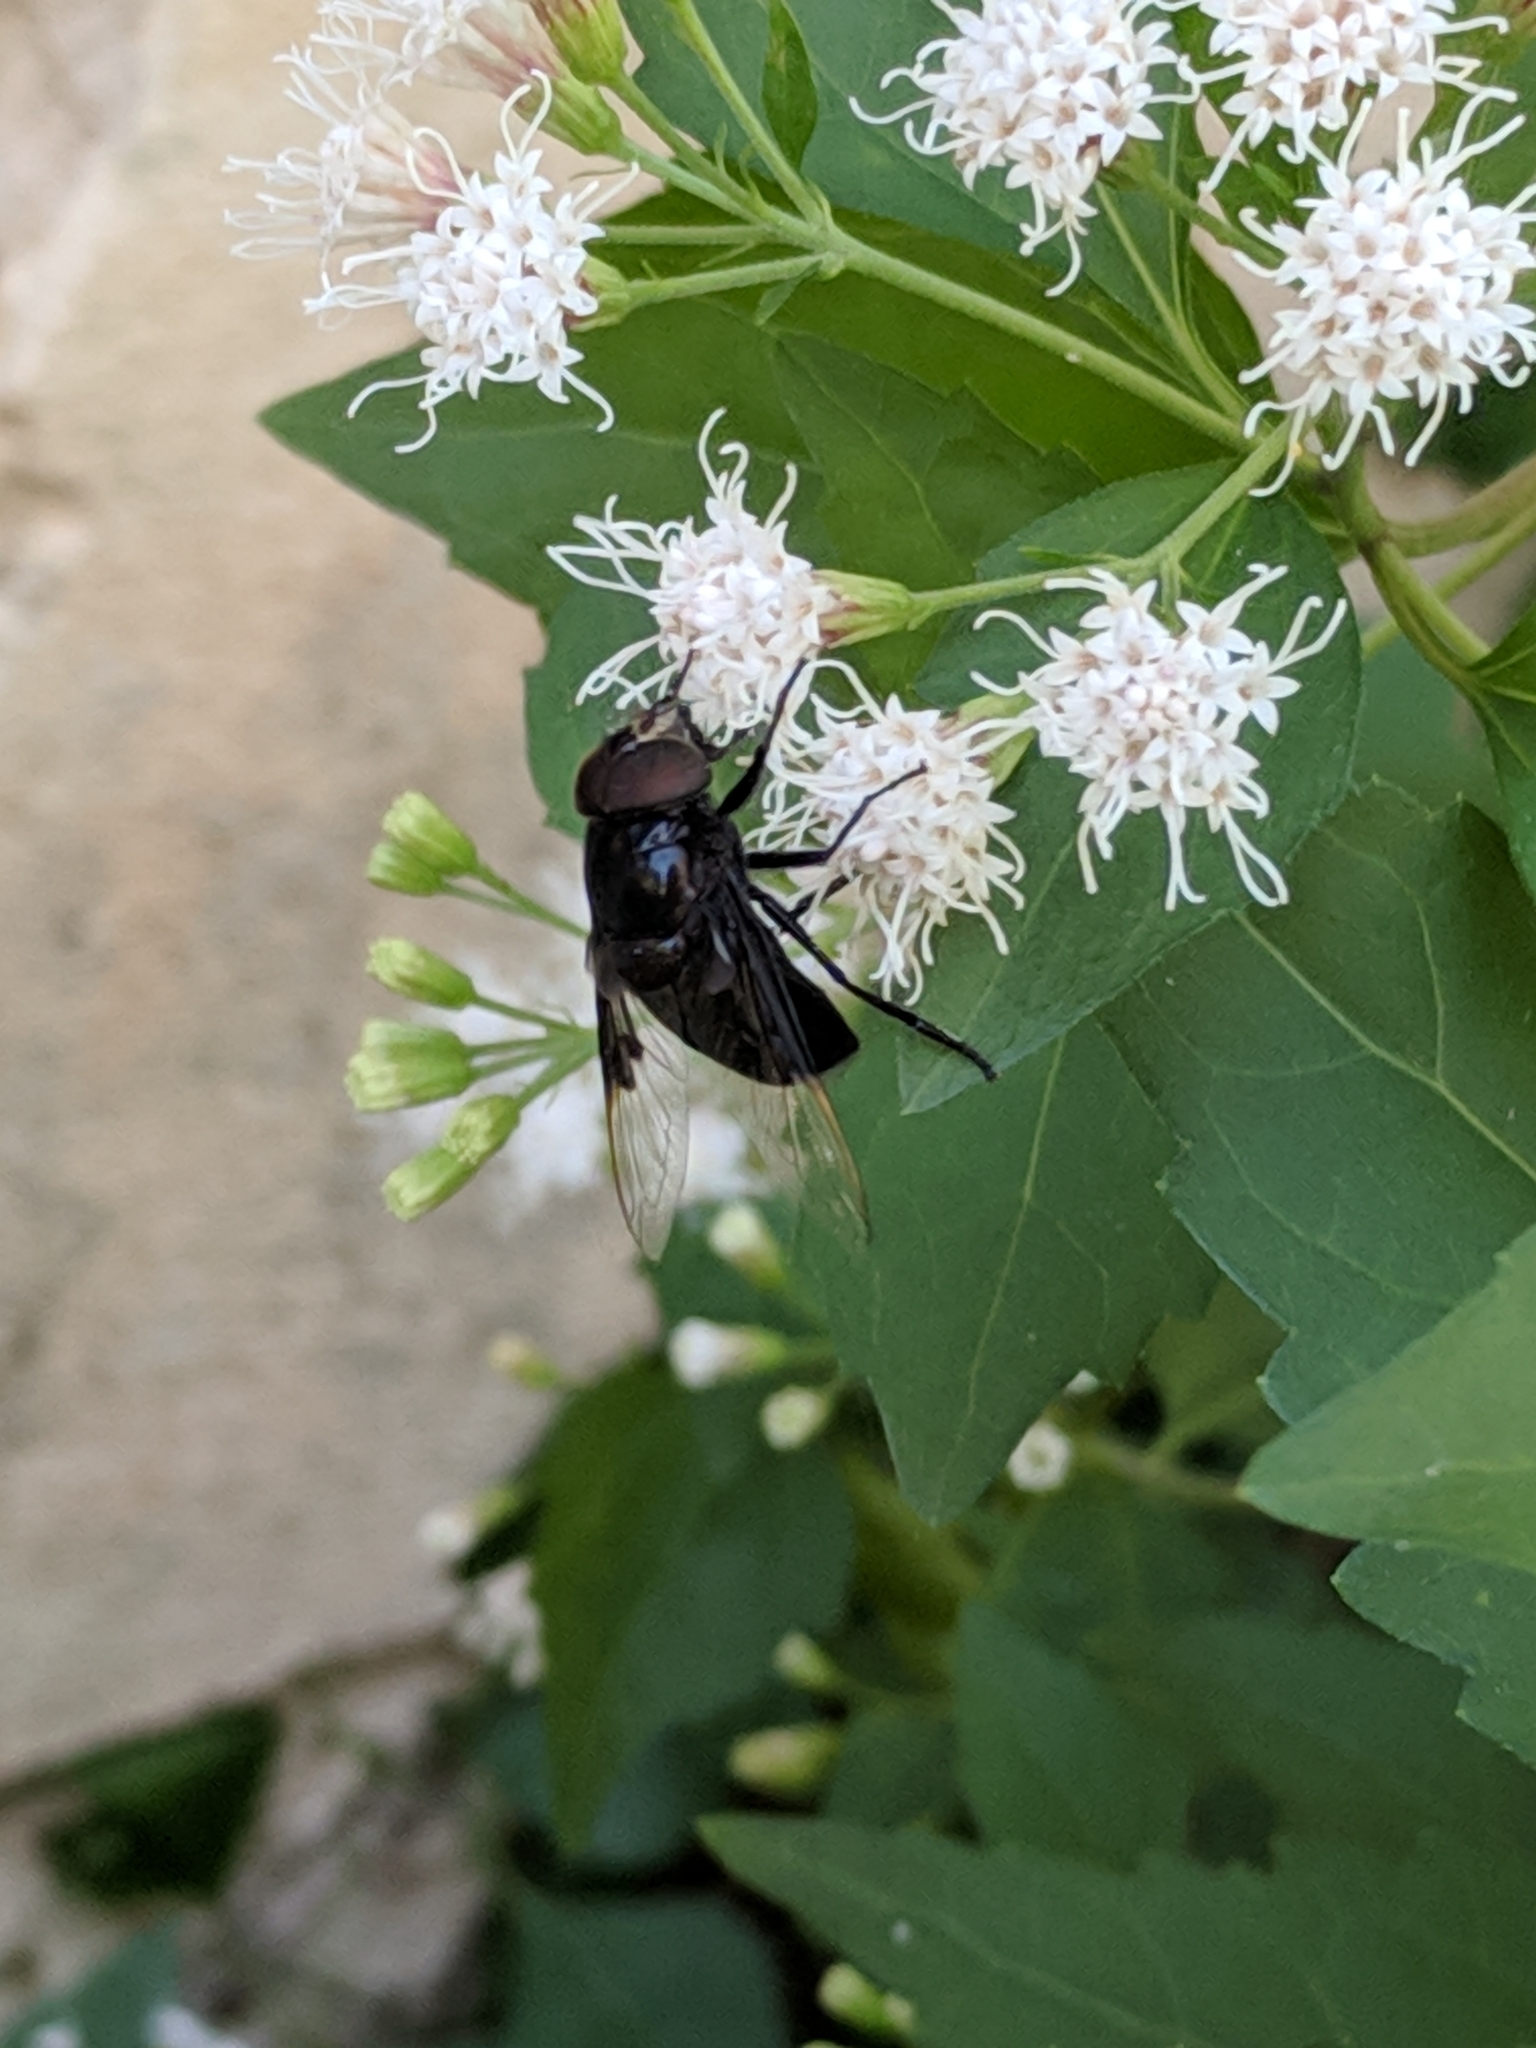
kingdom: Animalia
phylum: Arthropoda
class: Insecta
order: Diptera
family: Syrphidae
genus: Copestylum
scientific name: Copestylum mexicanum
